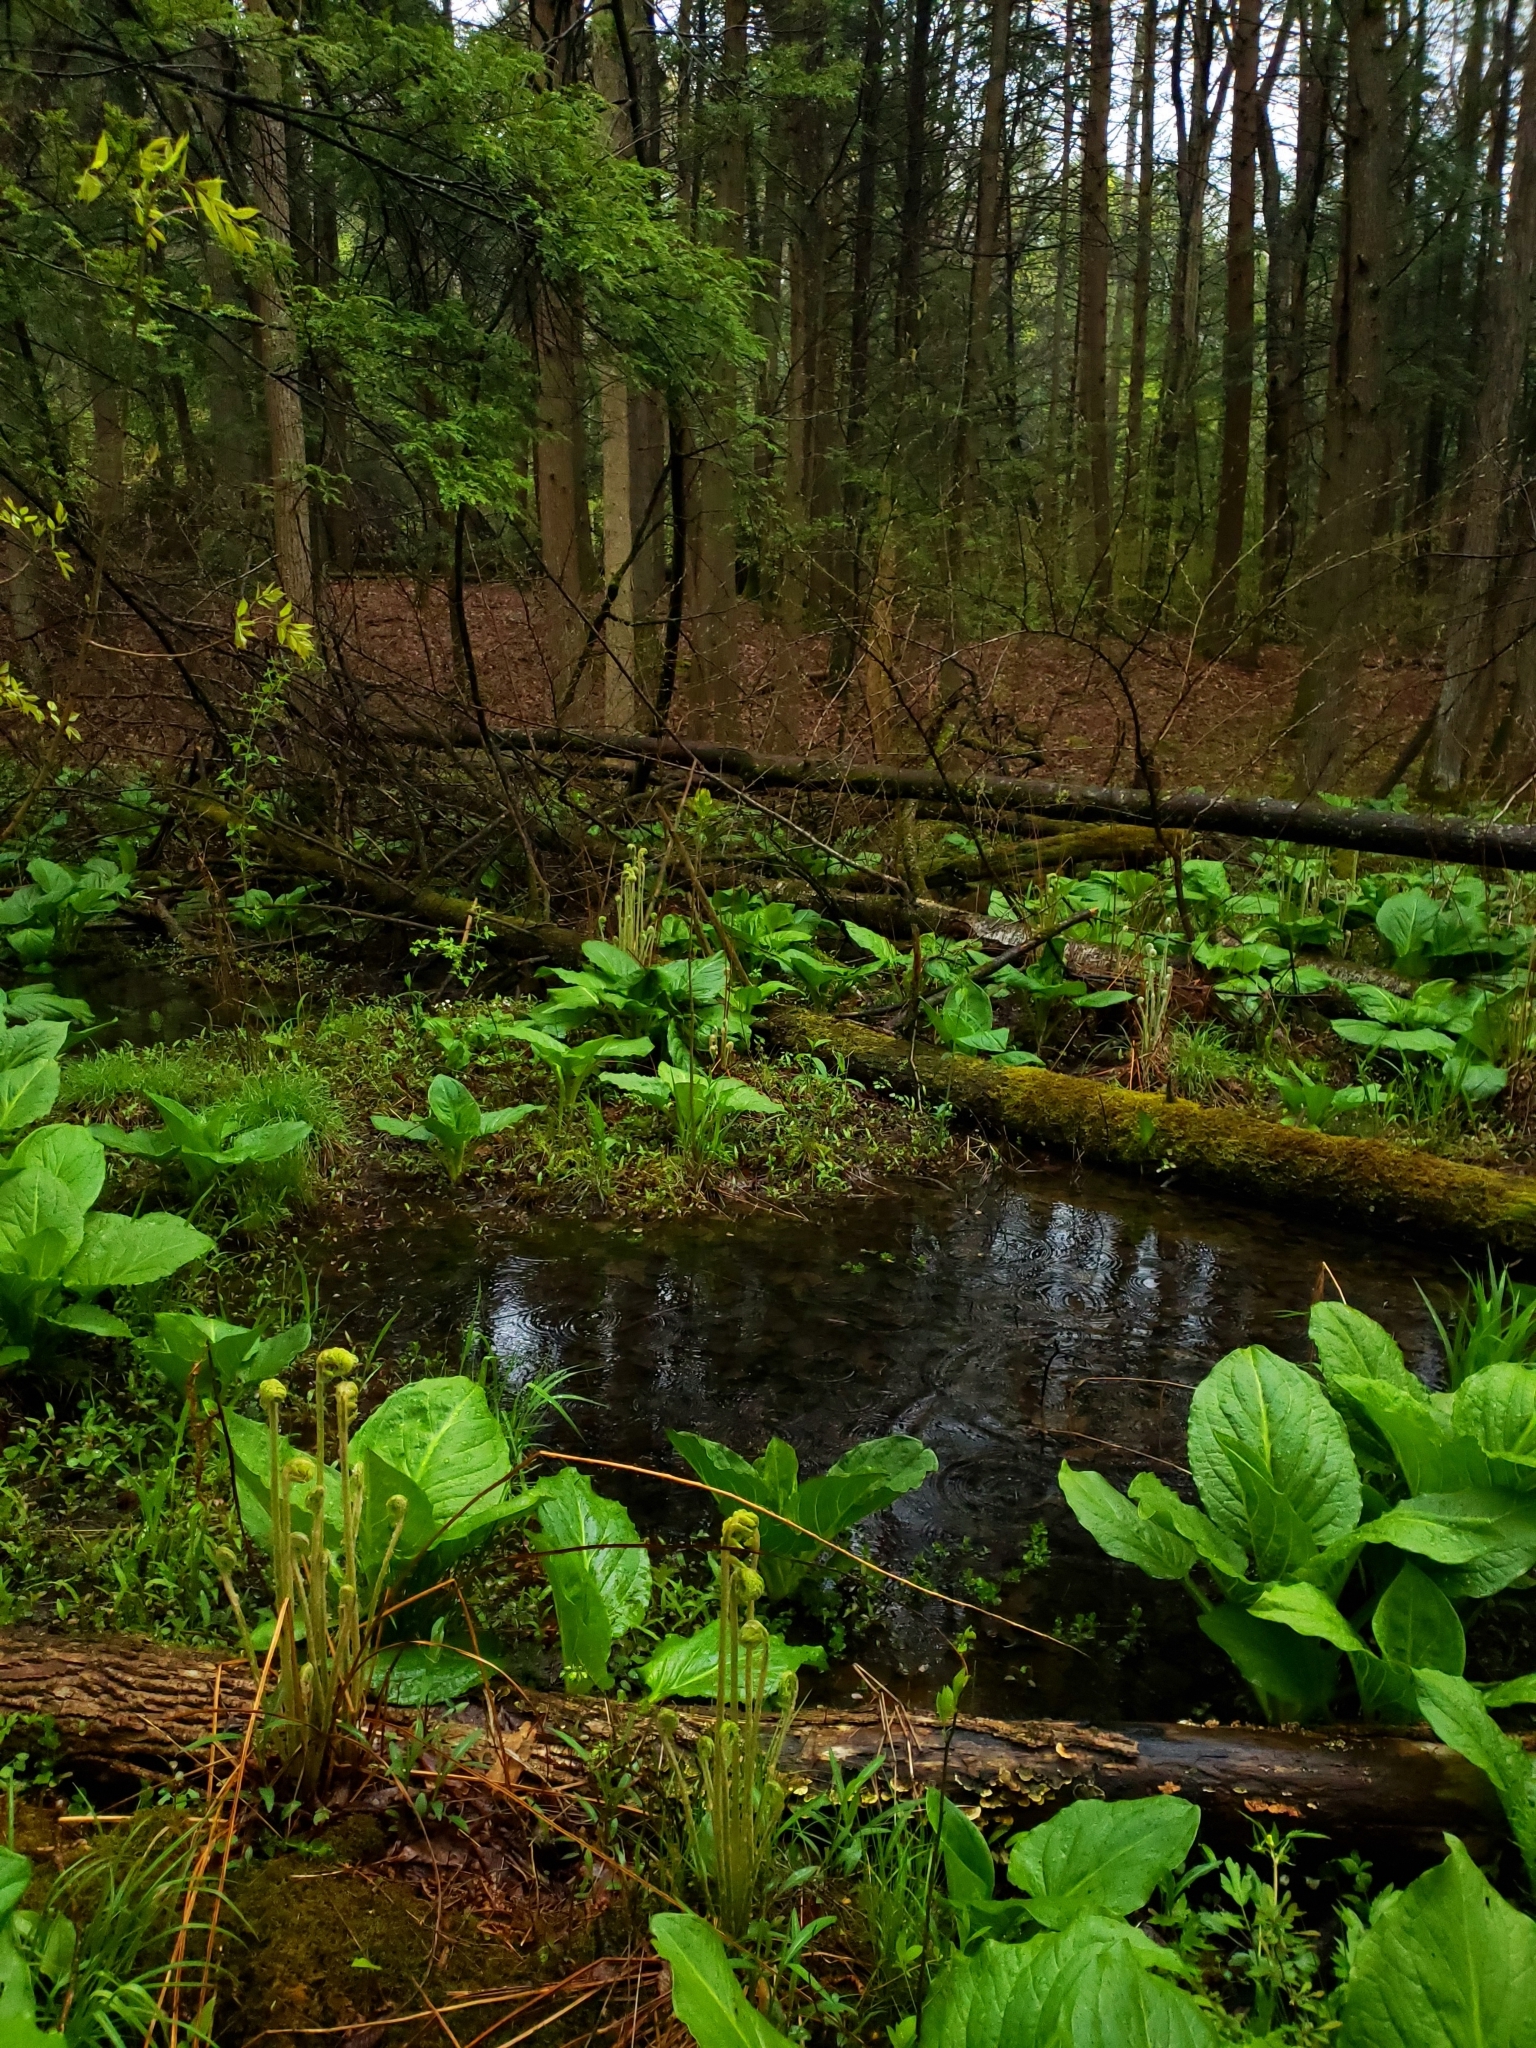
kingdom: Plantae
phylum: Tracheophyta
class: Liliopsida
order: Alismatales
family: Araceae
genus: Symplocarpus
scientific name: Symplocarpus foetidus
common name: Eastern skunk cabbage
